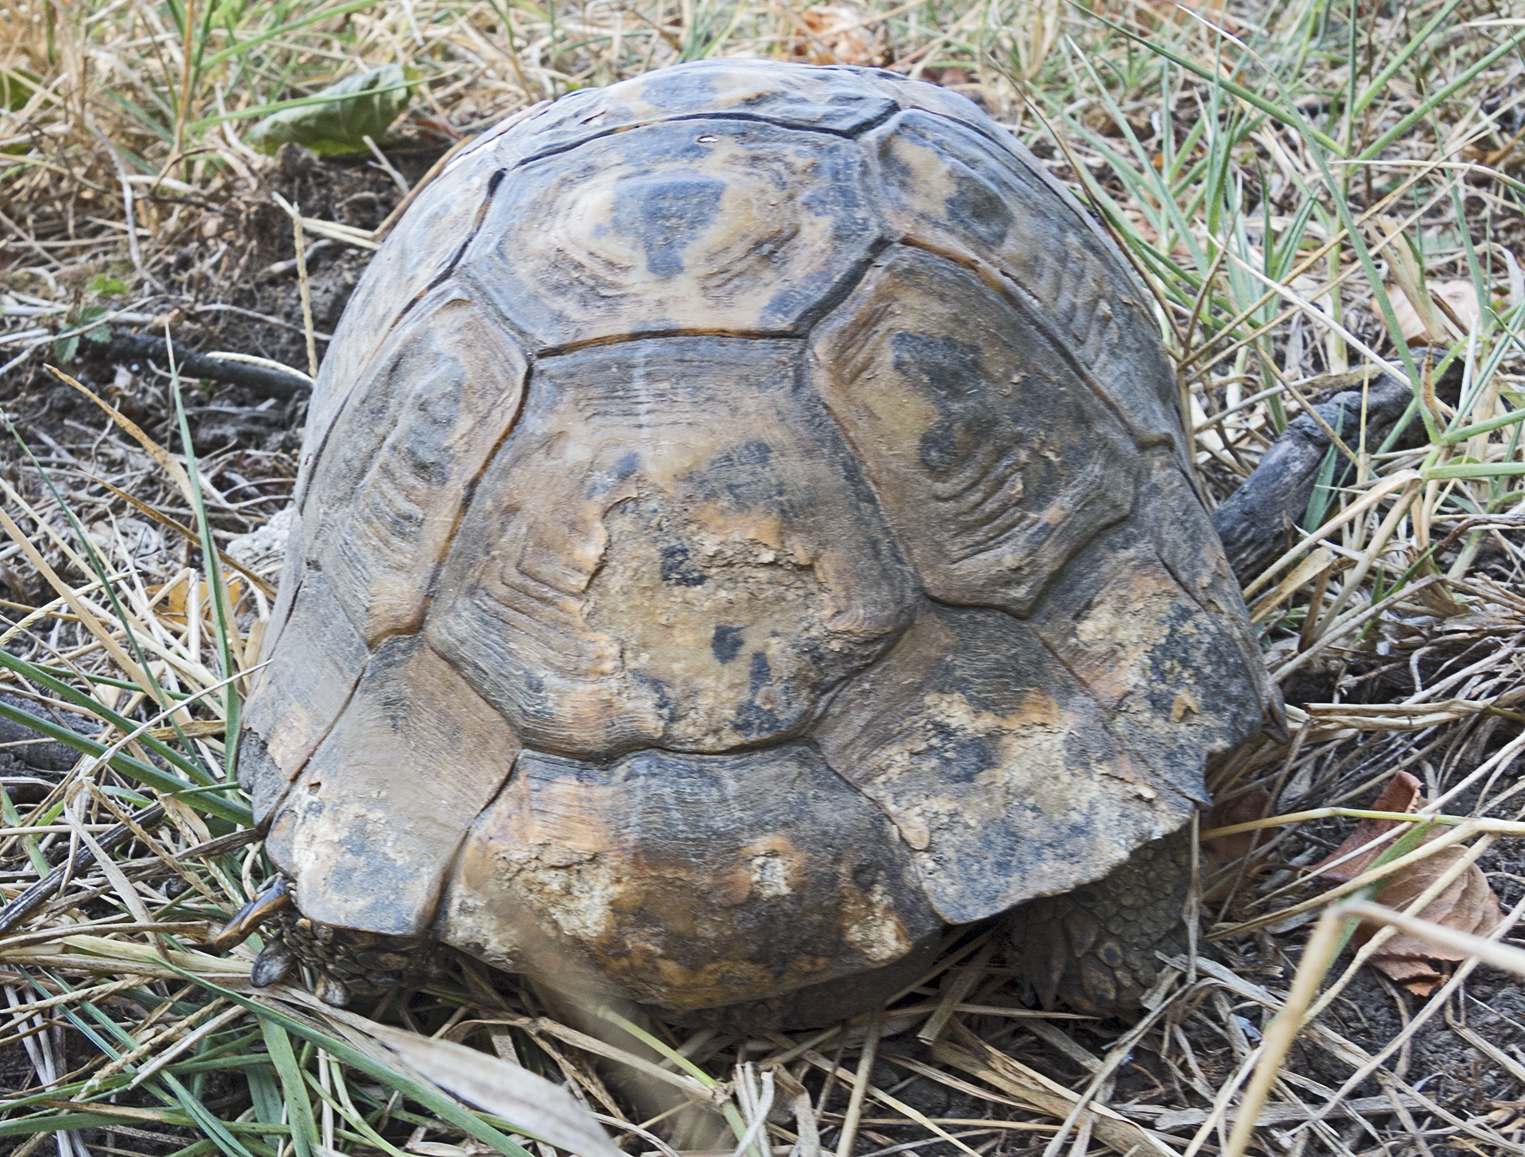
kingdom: Animalia
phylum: Chordata
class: Testudines
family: Testudinidae
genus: Testudo
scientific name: Testudo graeca
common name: Common tortoise
